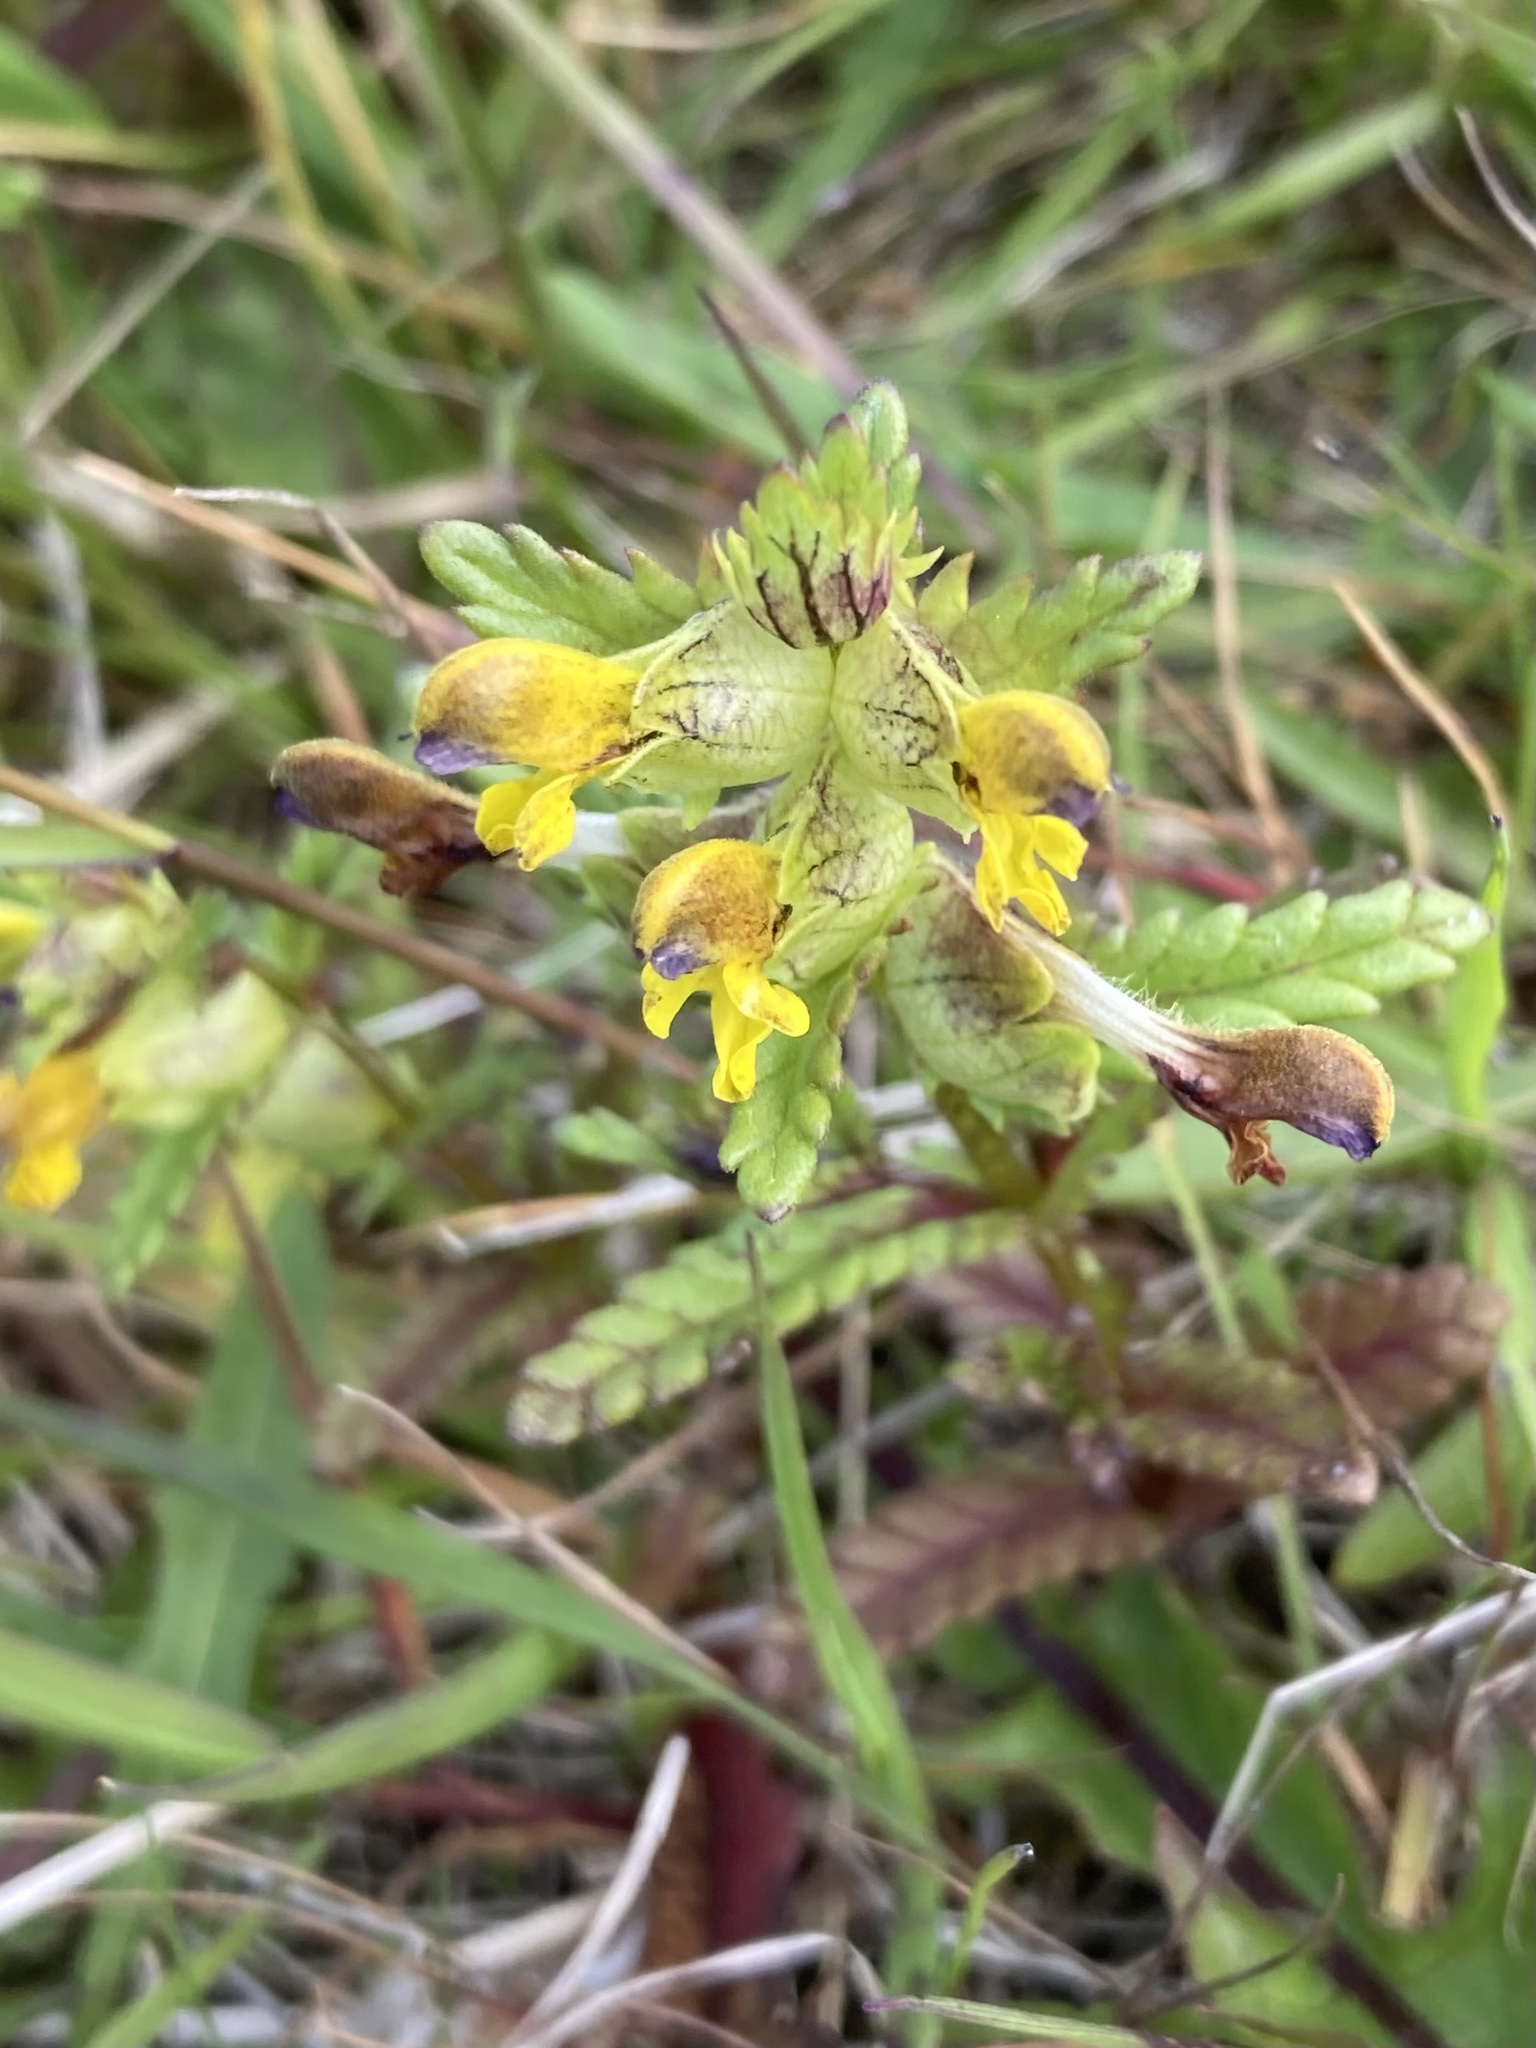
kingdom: Plantae
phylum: Tracheophyta
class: Magnoliopsida
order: Lamiales
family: Orobanchaceae
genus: Rhinanthus
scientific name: Rhinanthus minor
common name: Yellow-rattle
